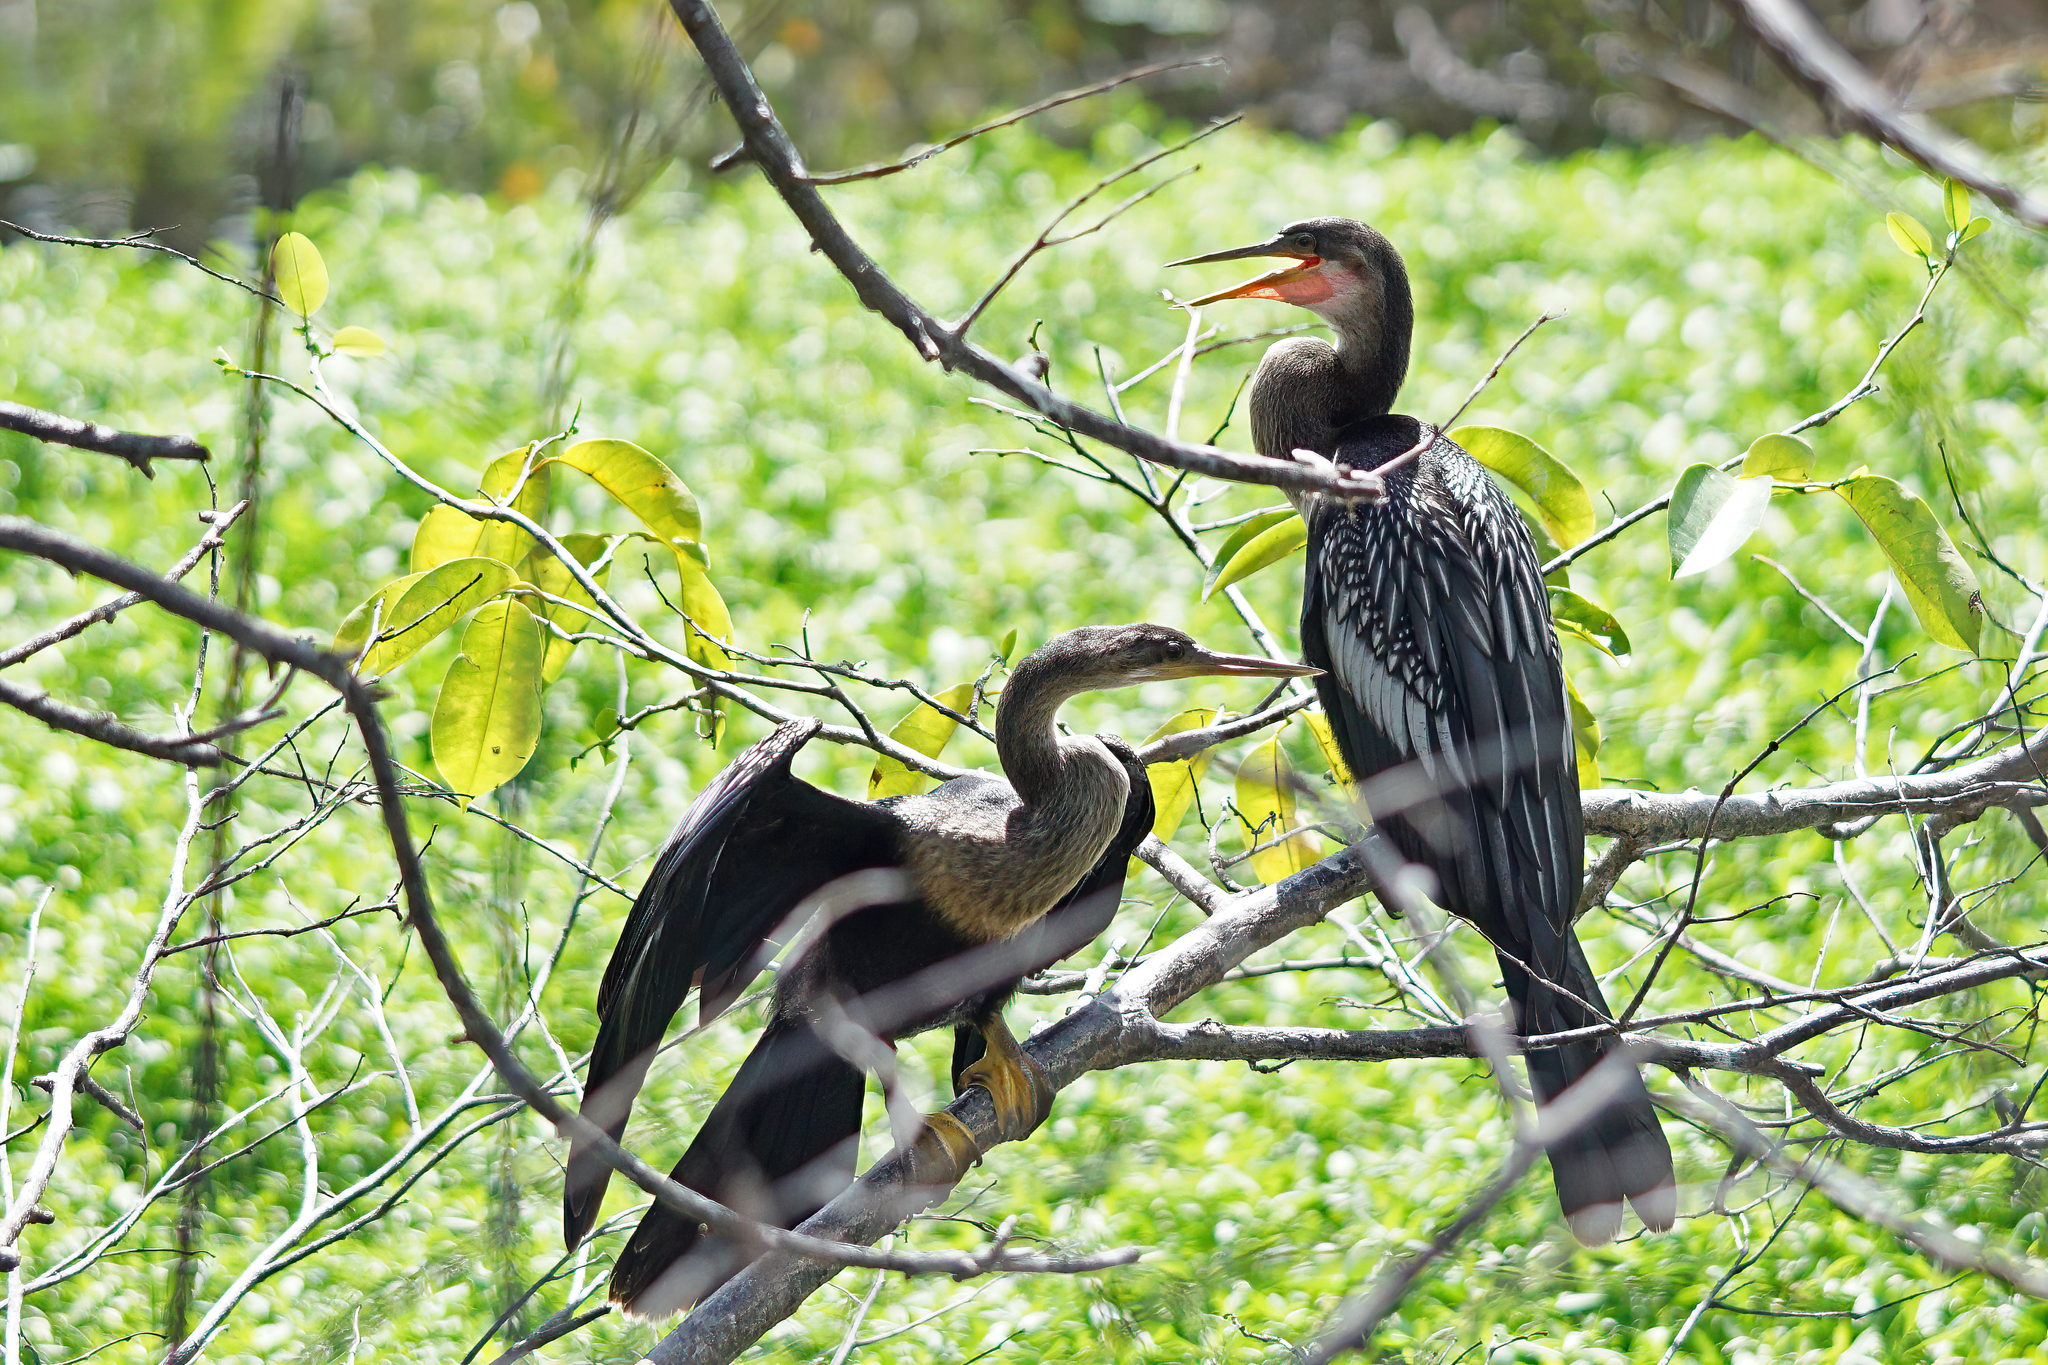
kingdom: Animalia
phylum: Chordata
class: Aves
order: Suliformes
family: Anhingidae
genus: Anhinga
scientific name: Anhinga anhinga
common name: Anhinga
